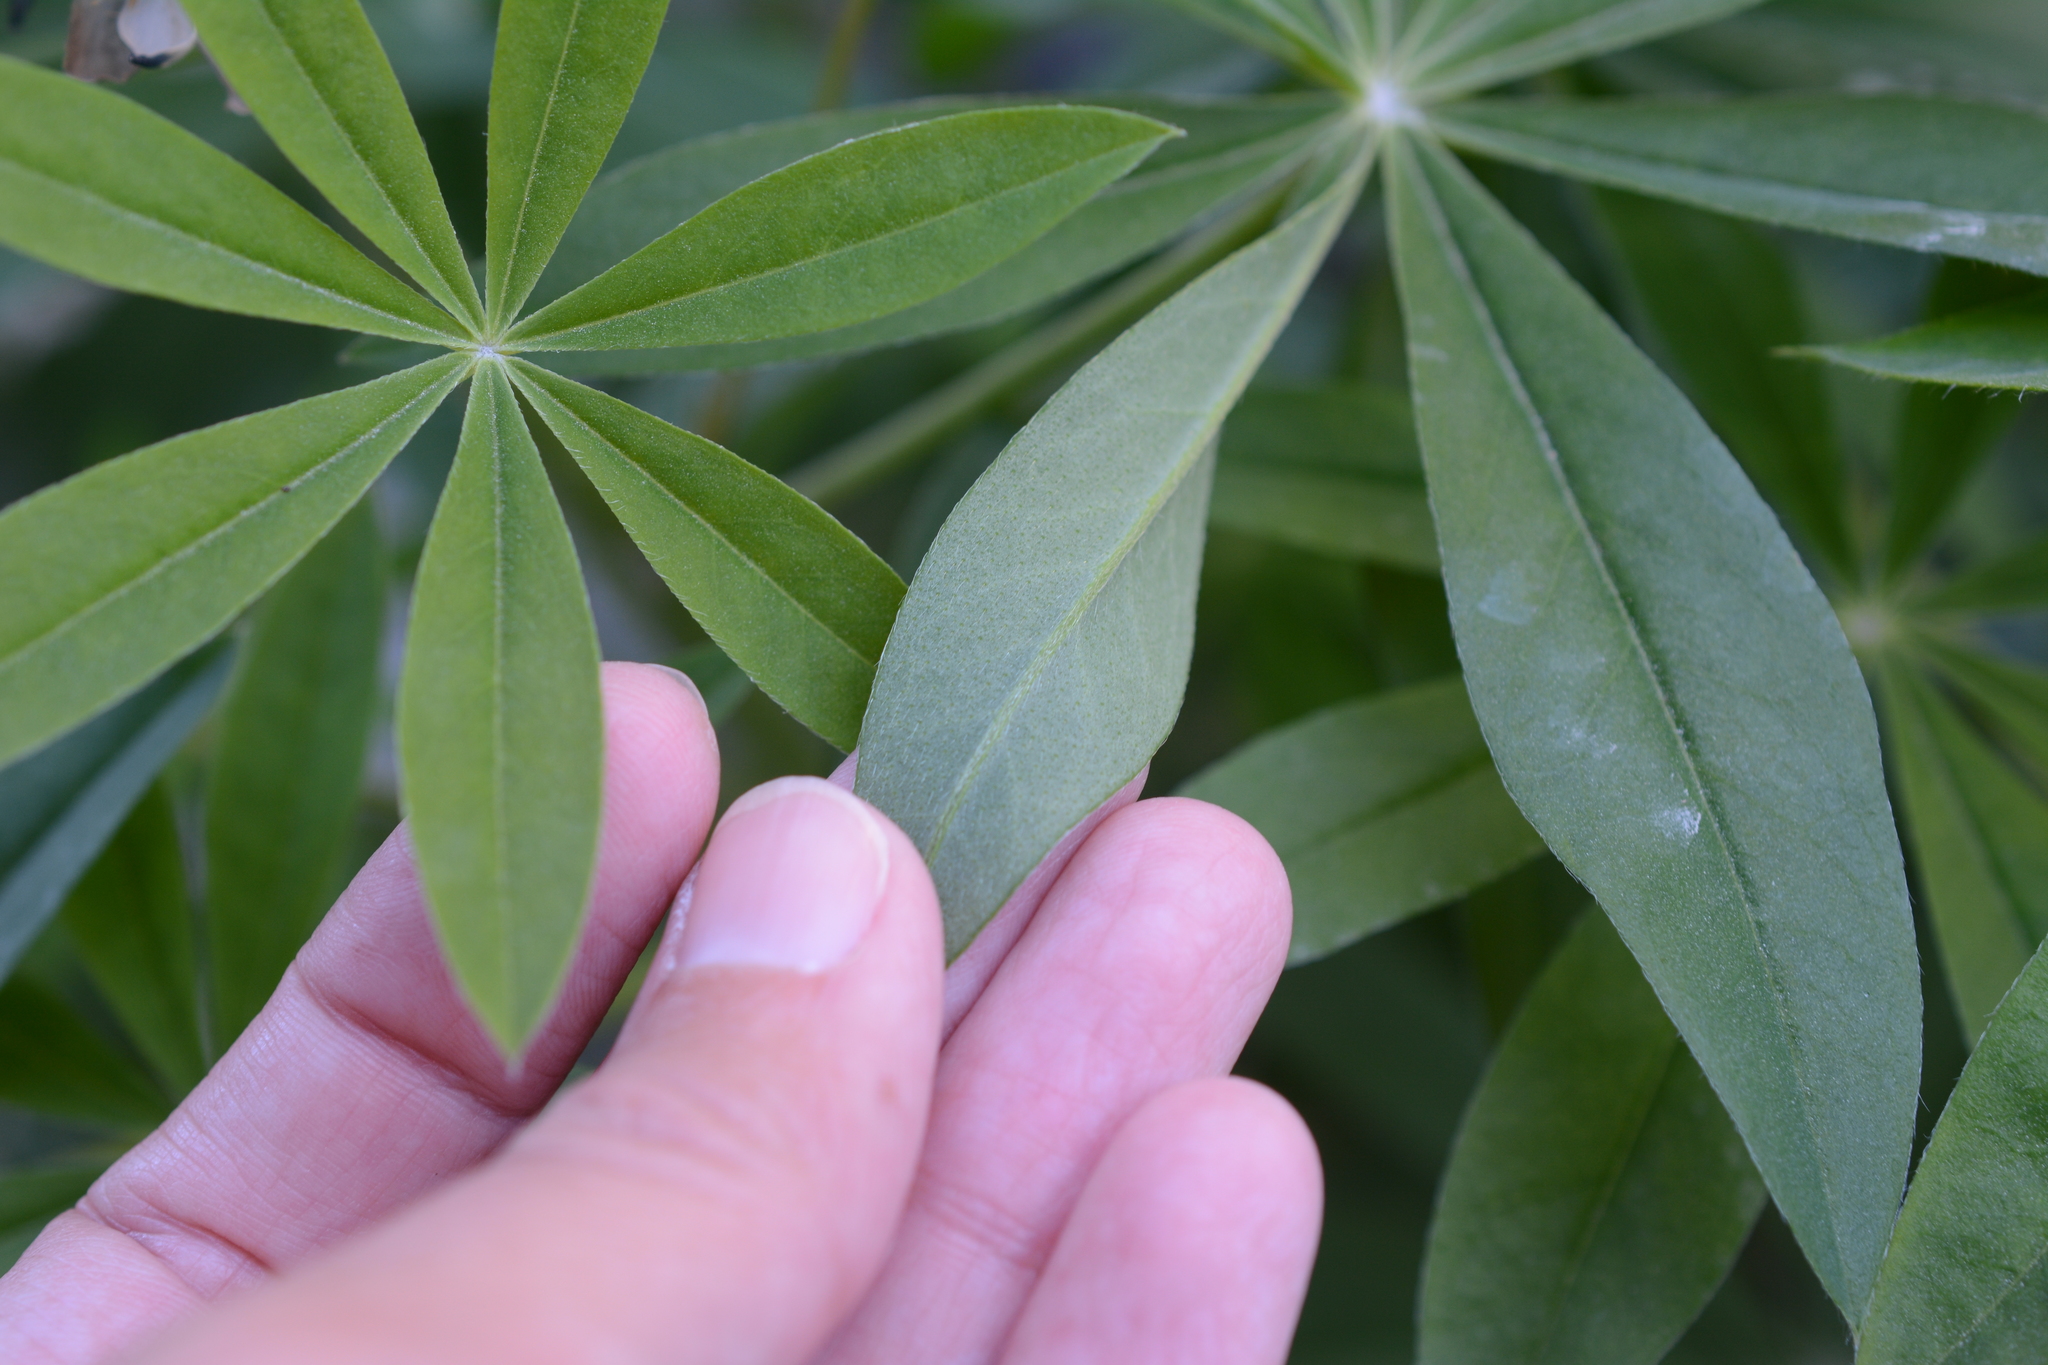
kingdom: Plantae
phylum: Tracheophyta
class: Magnoliopsida
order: Fabales
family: Fabaceae
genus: Lupinus
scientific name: Lupinus polyphyllus
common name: Garden lupin
